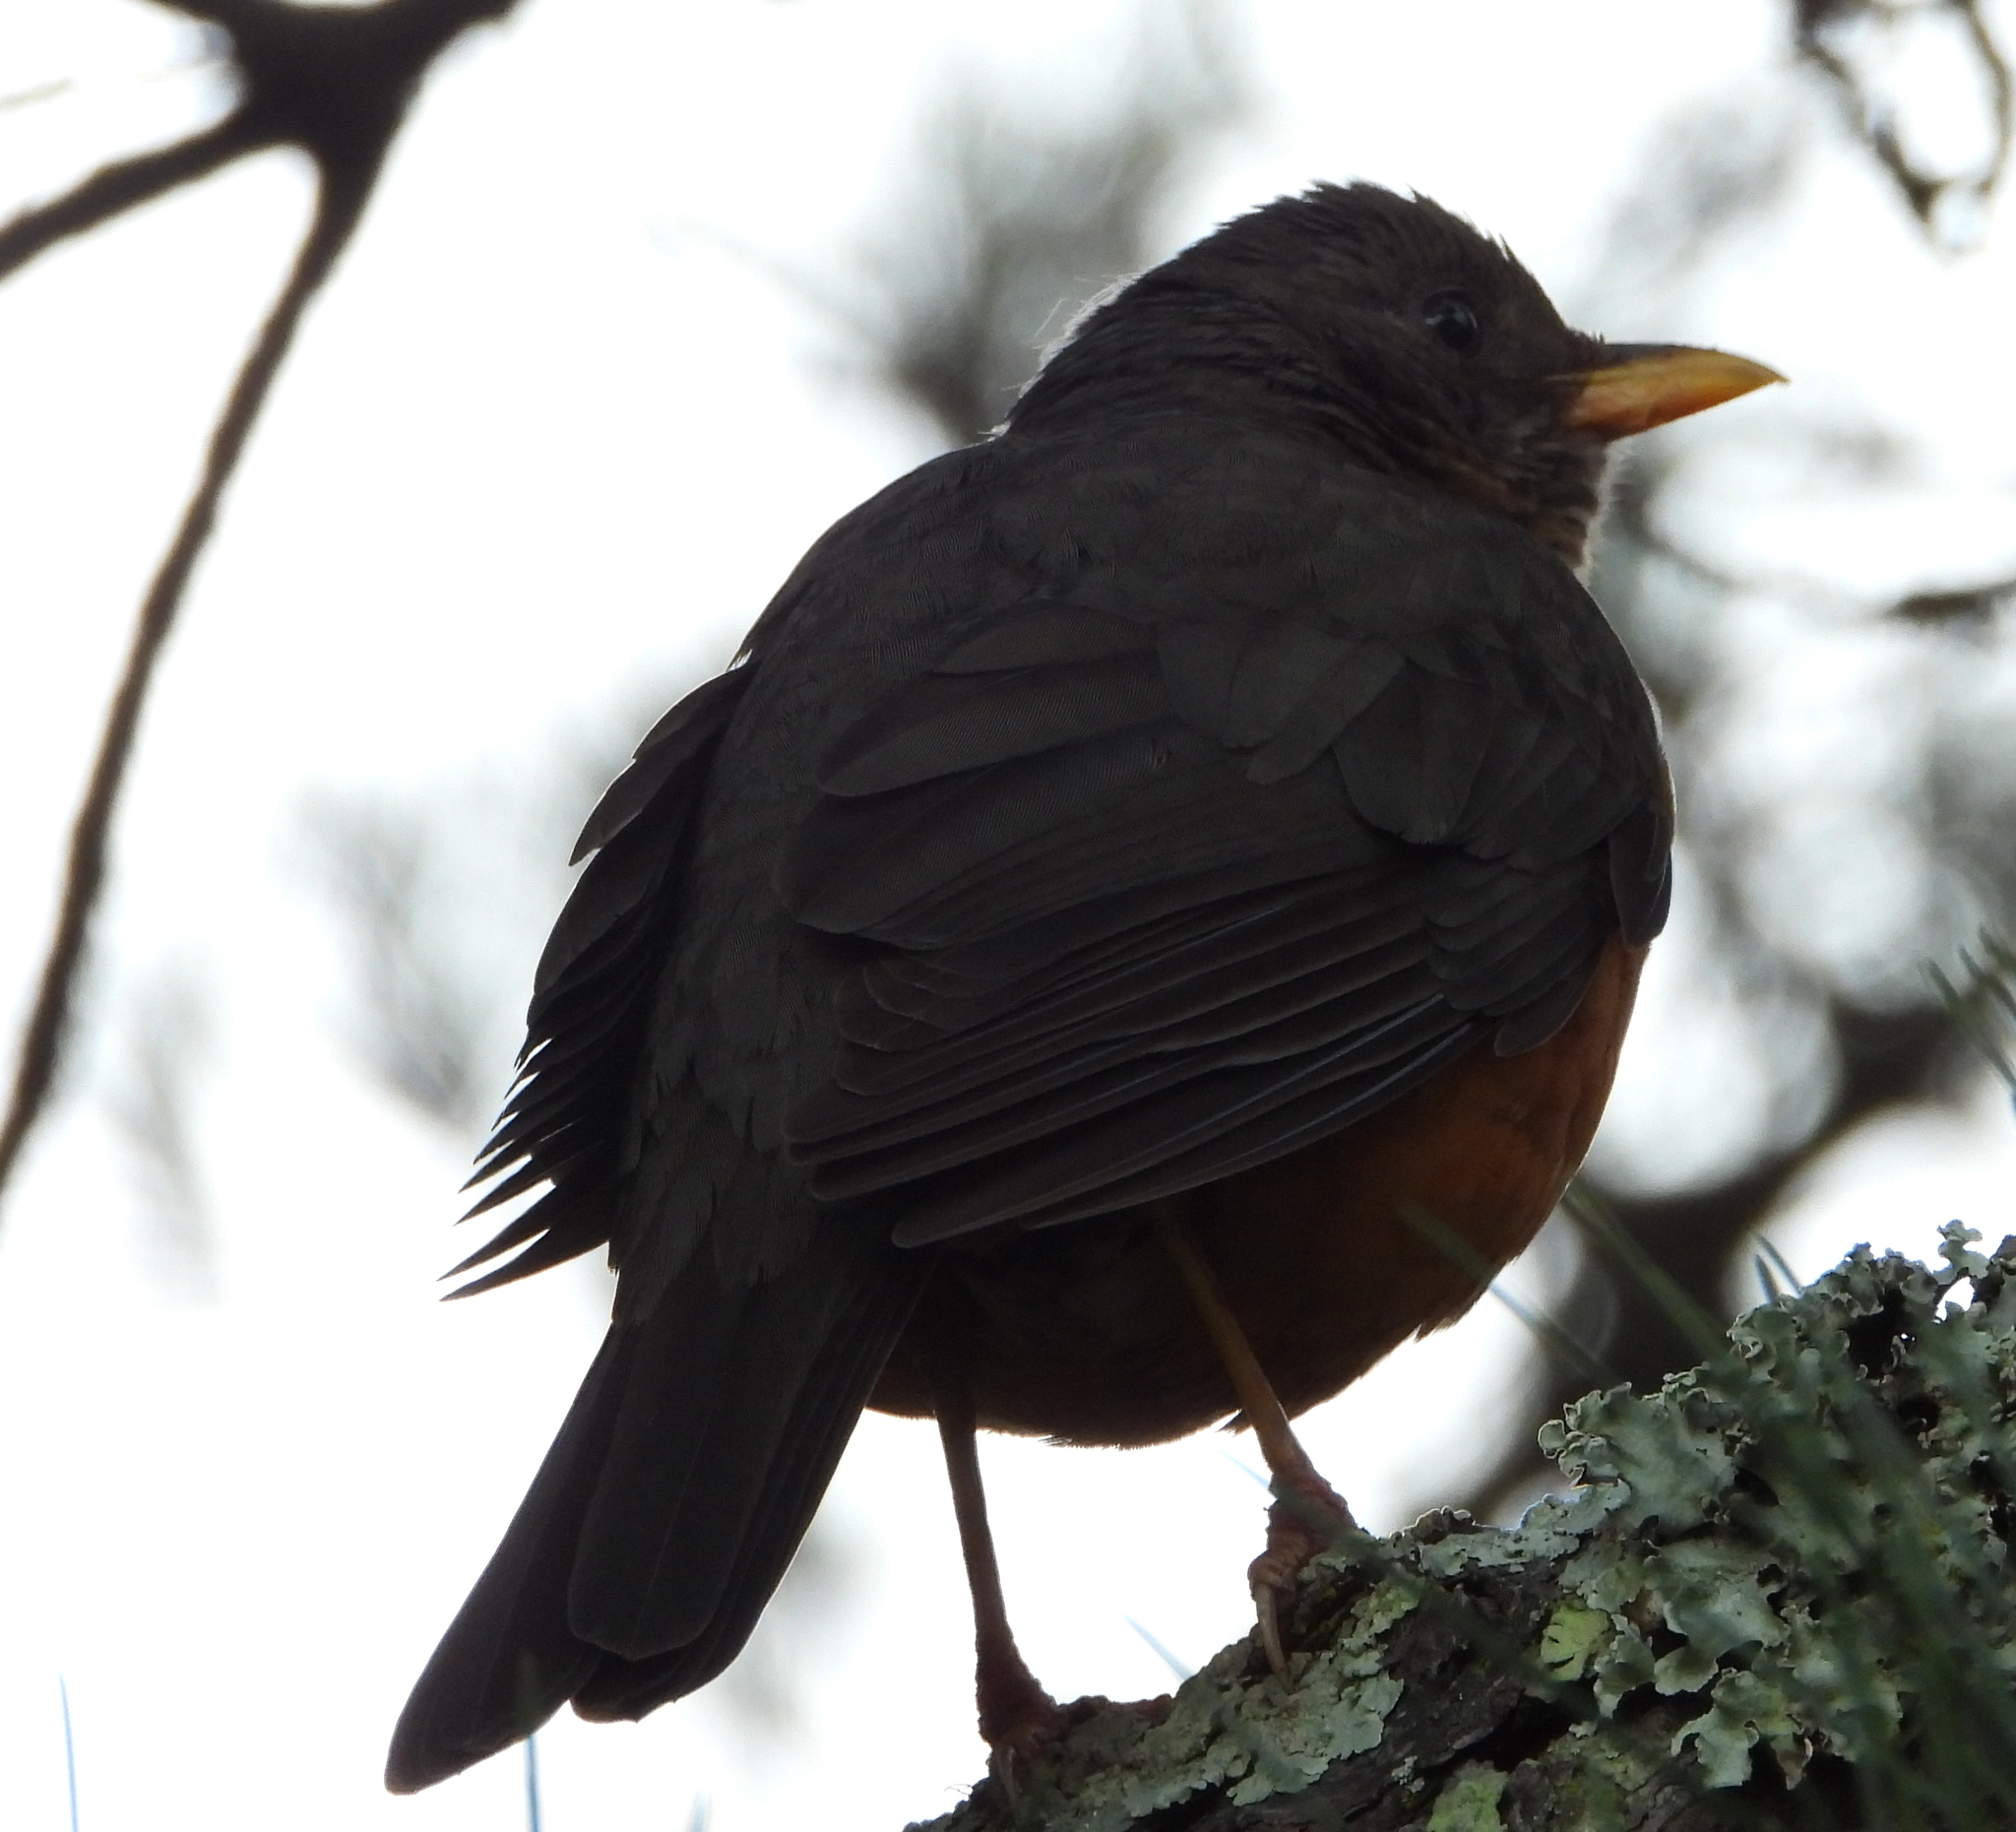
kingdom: Animalia
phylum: Chordata
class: Aves
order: Passeriformes
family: Turdidae
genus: Turdus
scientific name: Turdus olivaceus
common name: Olive thrush
